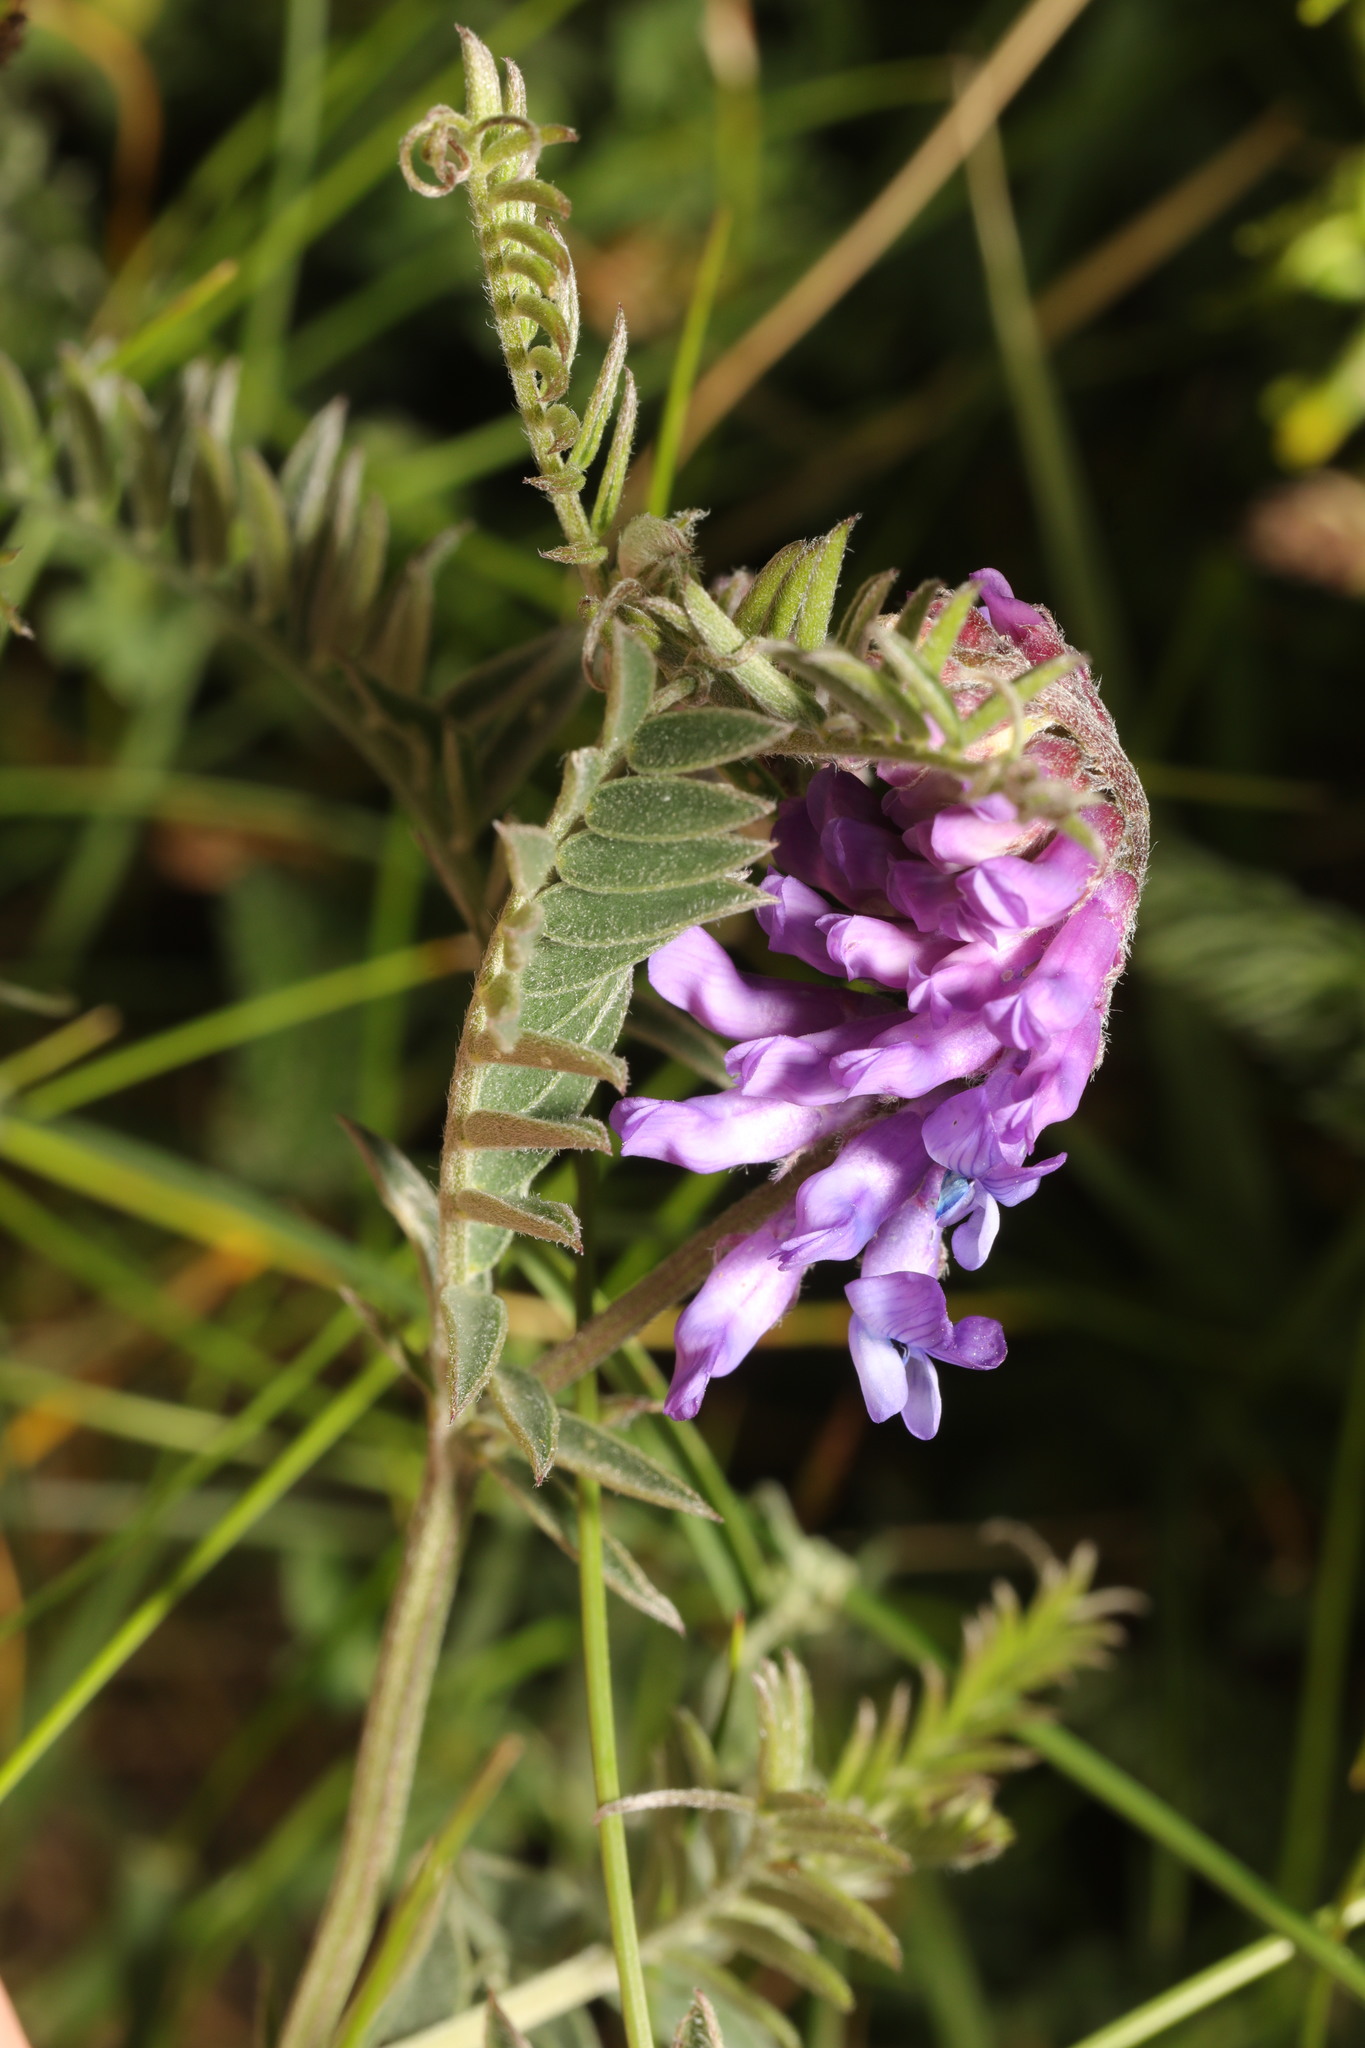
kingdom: Plantae
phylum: Tracheophyta
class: Magnoliopsida
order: Fabales
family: Fabaceae
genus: Vicia
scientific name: Vicia cracca
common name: Bird vetch
